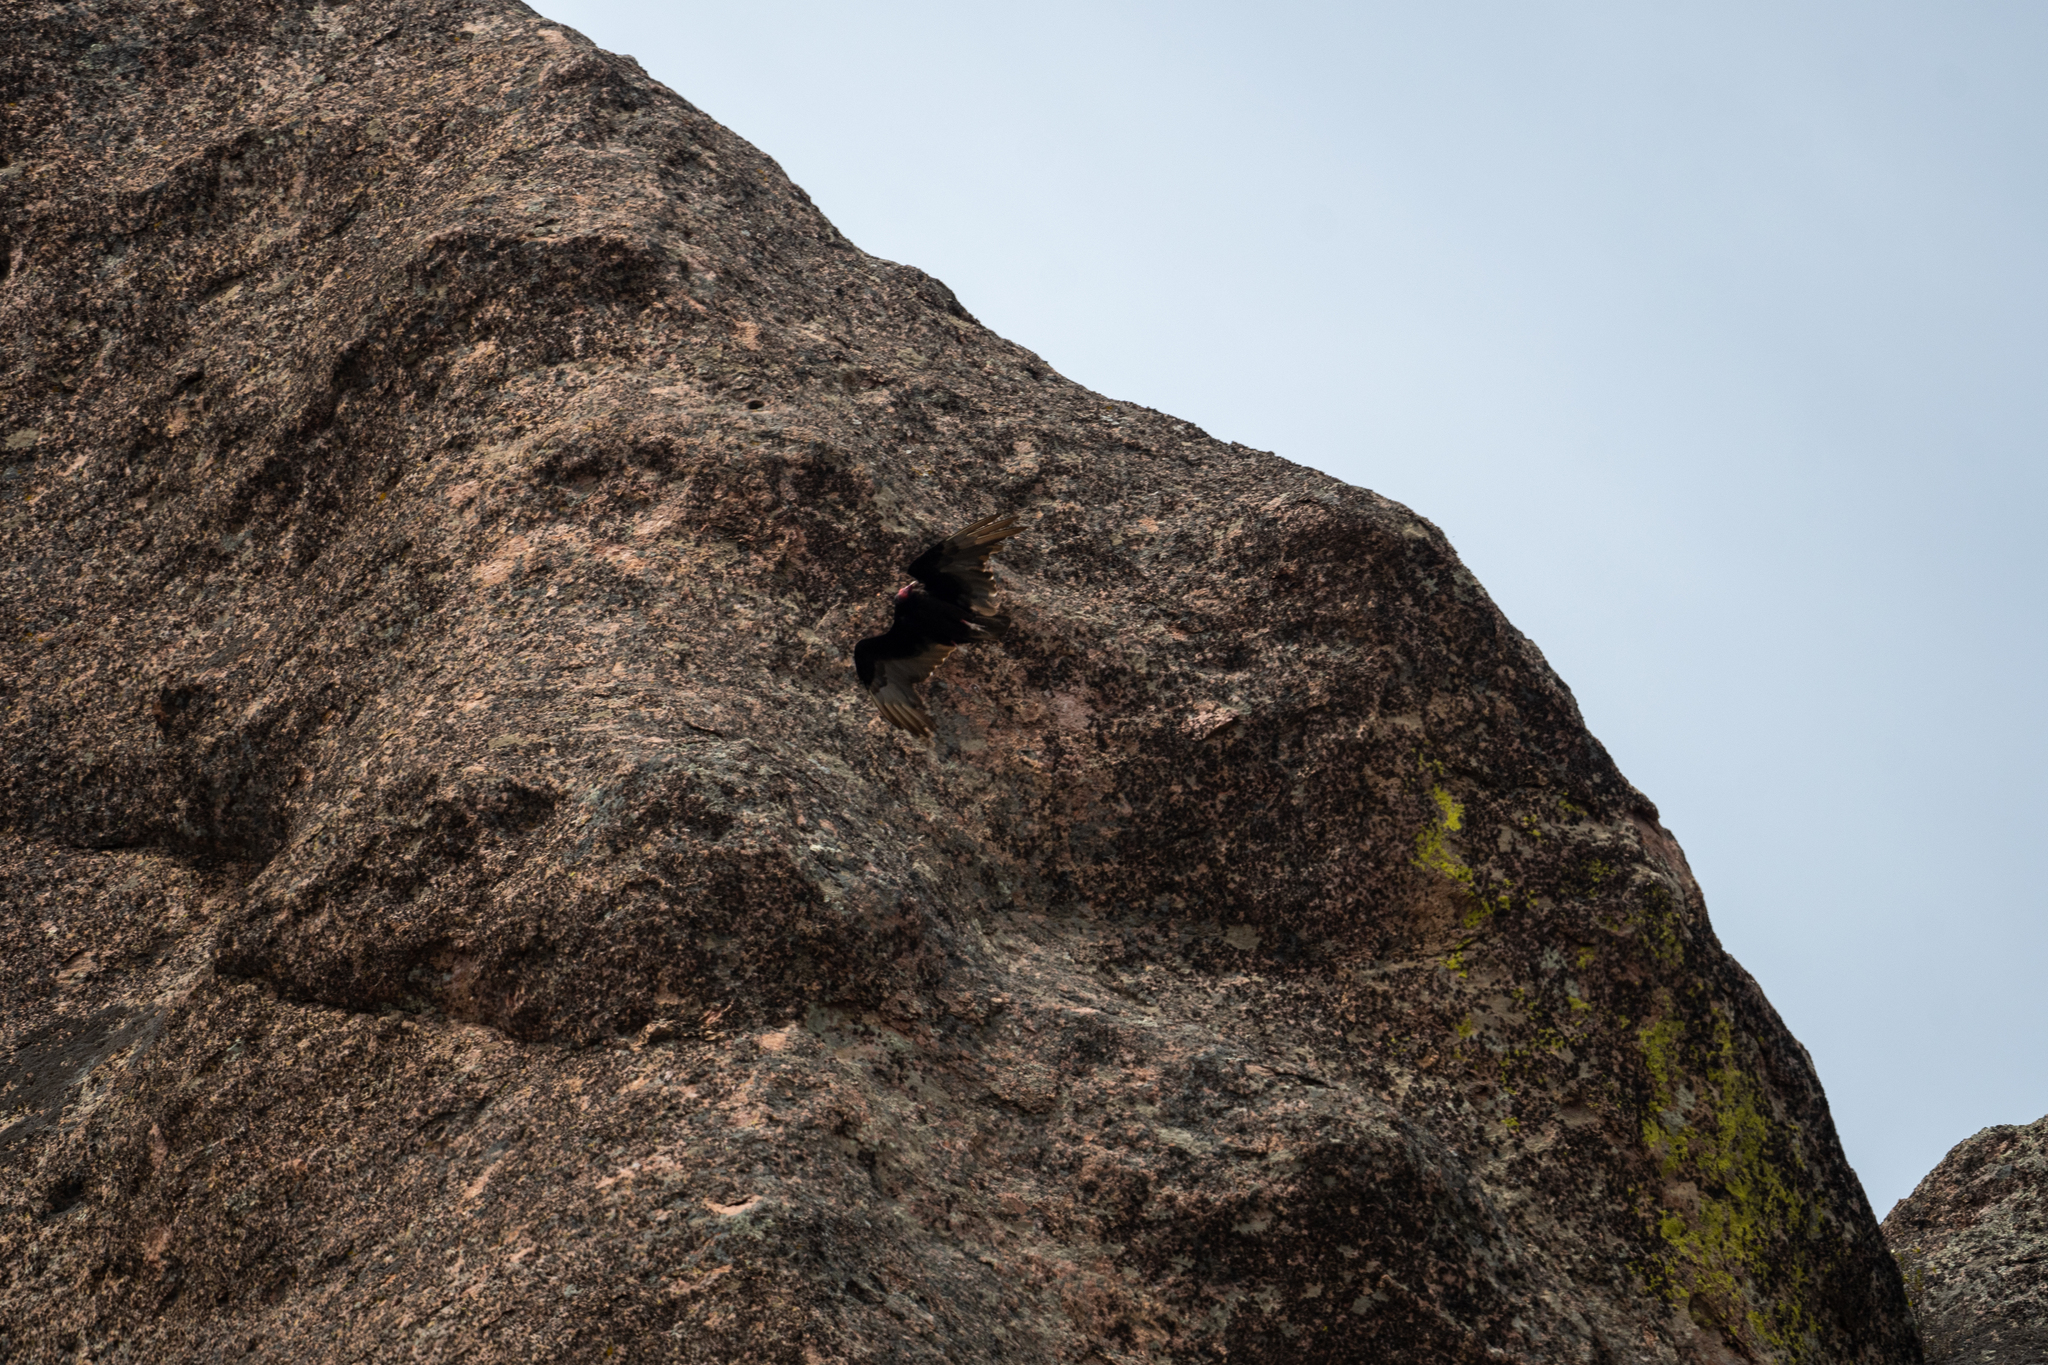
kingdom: Animalia
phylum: Chordata
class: Aves
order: Accipitriformes
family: Cathartidae
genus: Cathartes
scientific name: Cathartes aura
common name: Turkey vulture
